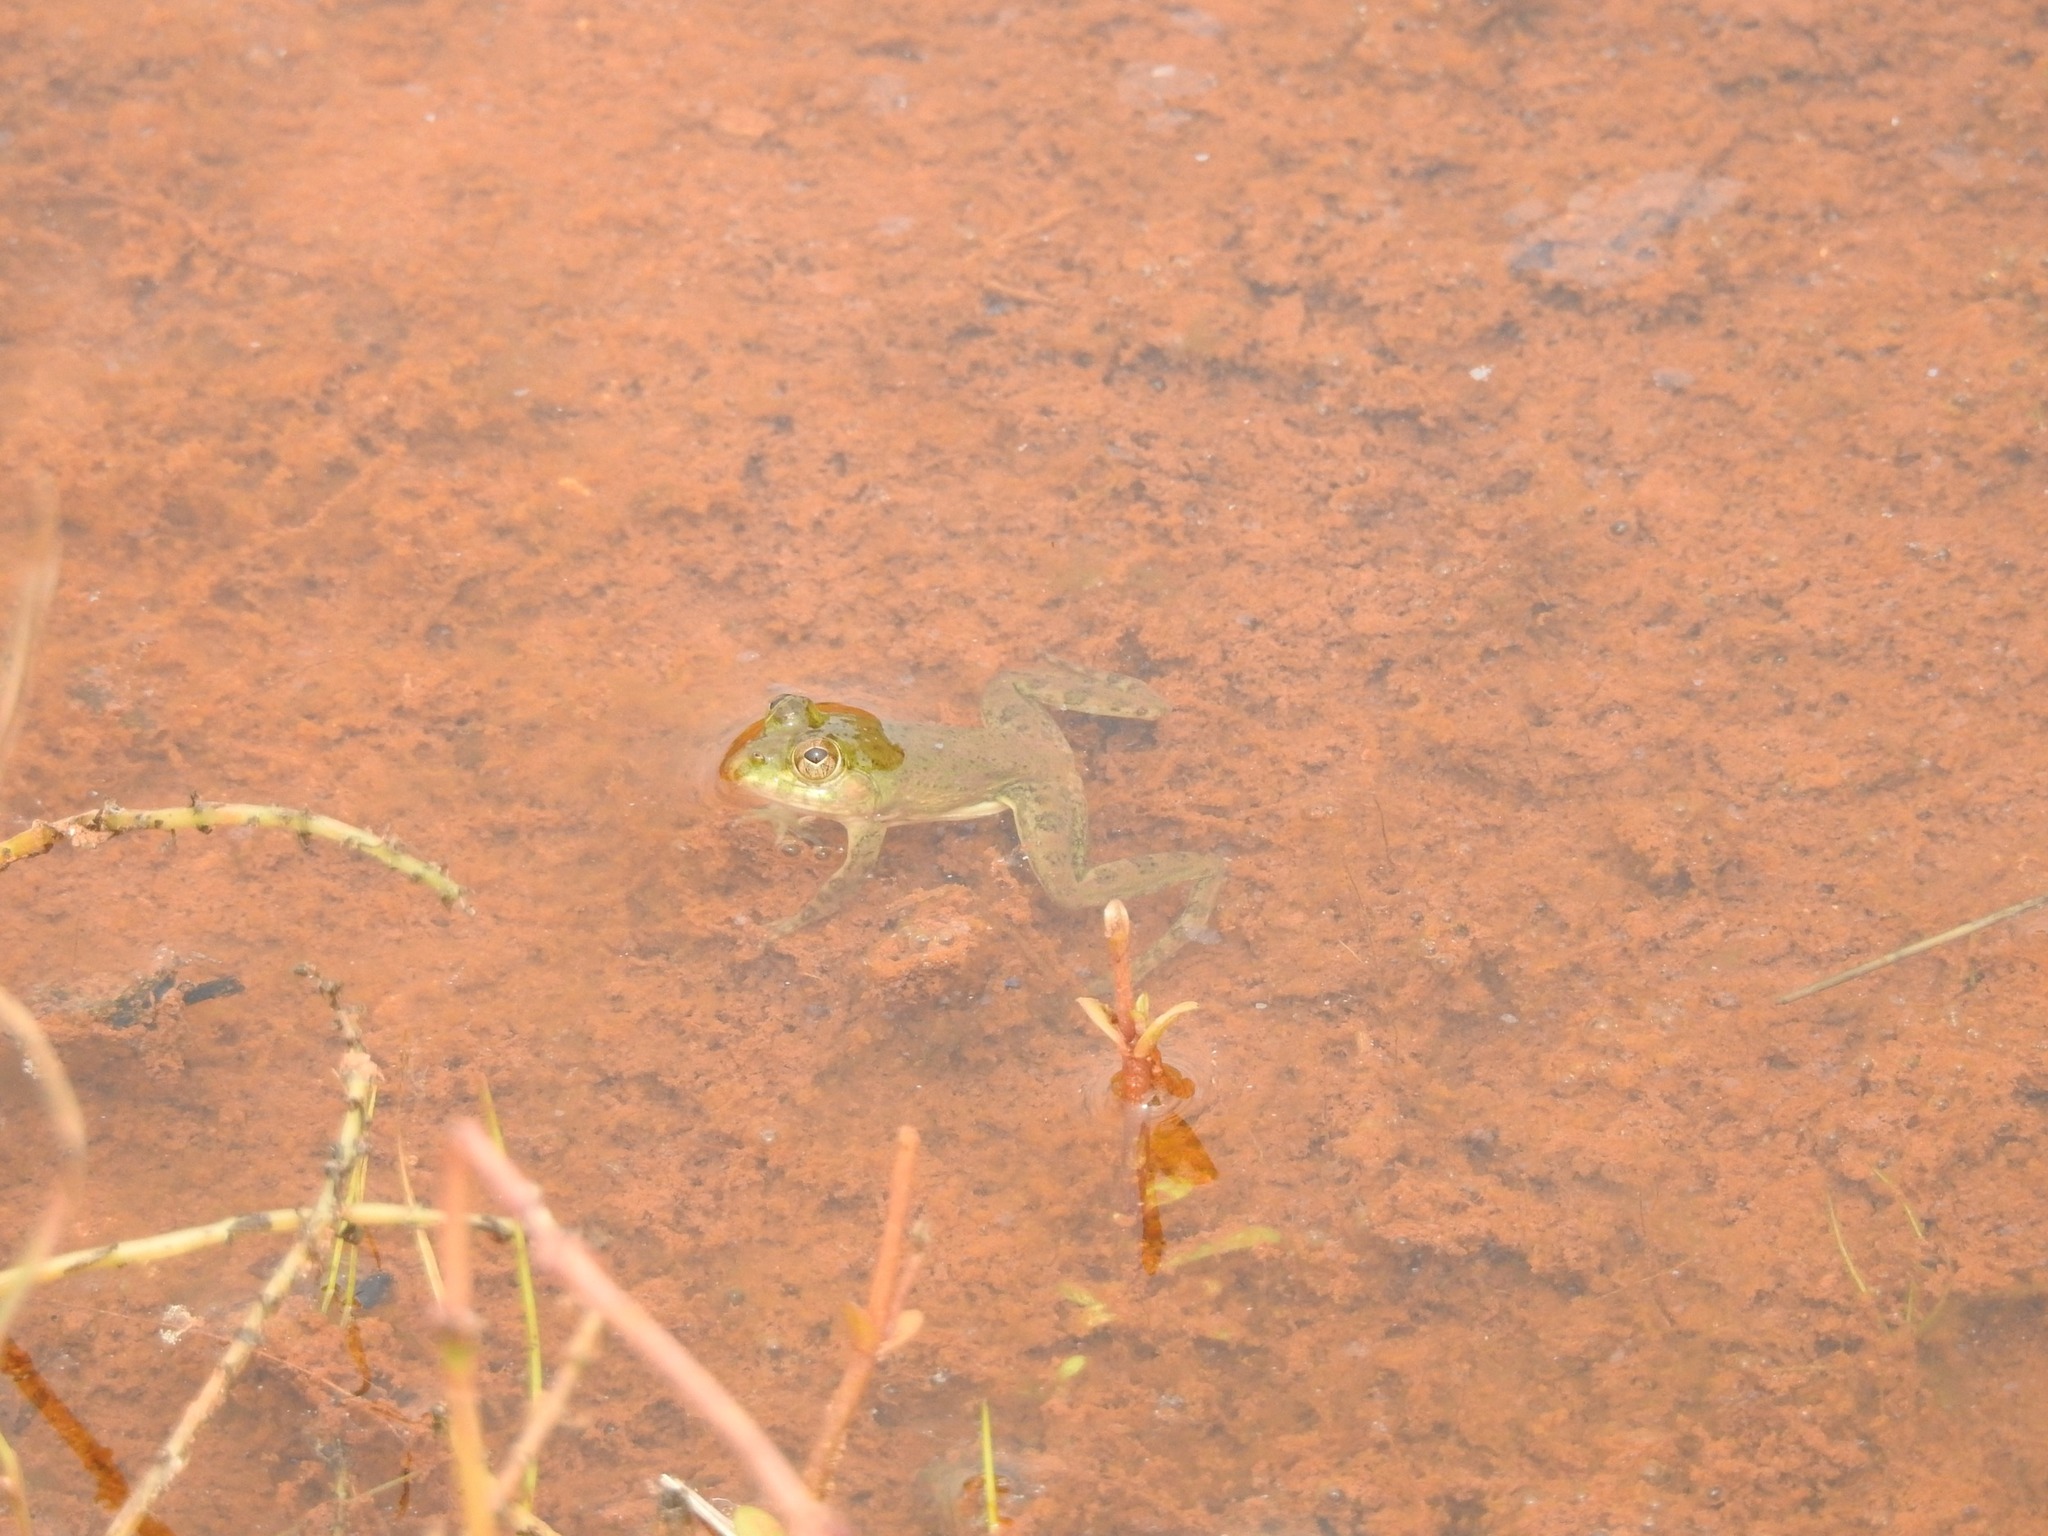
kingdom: Animalia
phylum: Chordata
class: Amphibia
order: Anura
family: Dicroglossidae
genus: Euphlyctis
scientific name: Euphlyctis cyanophlyctis
